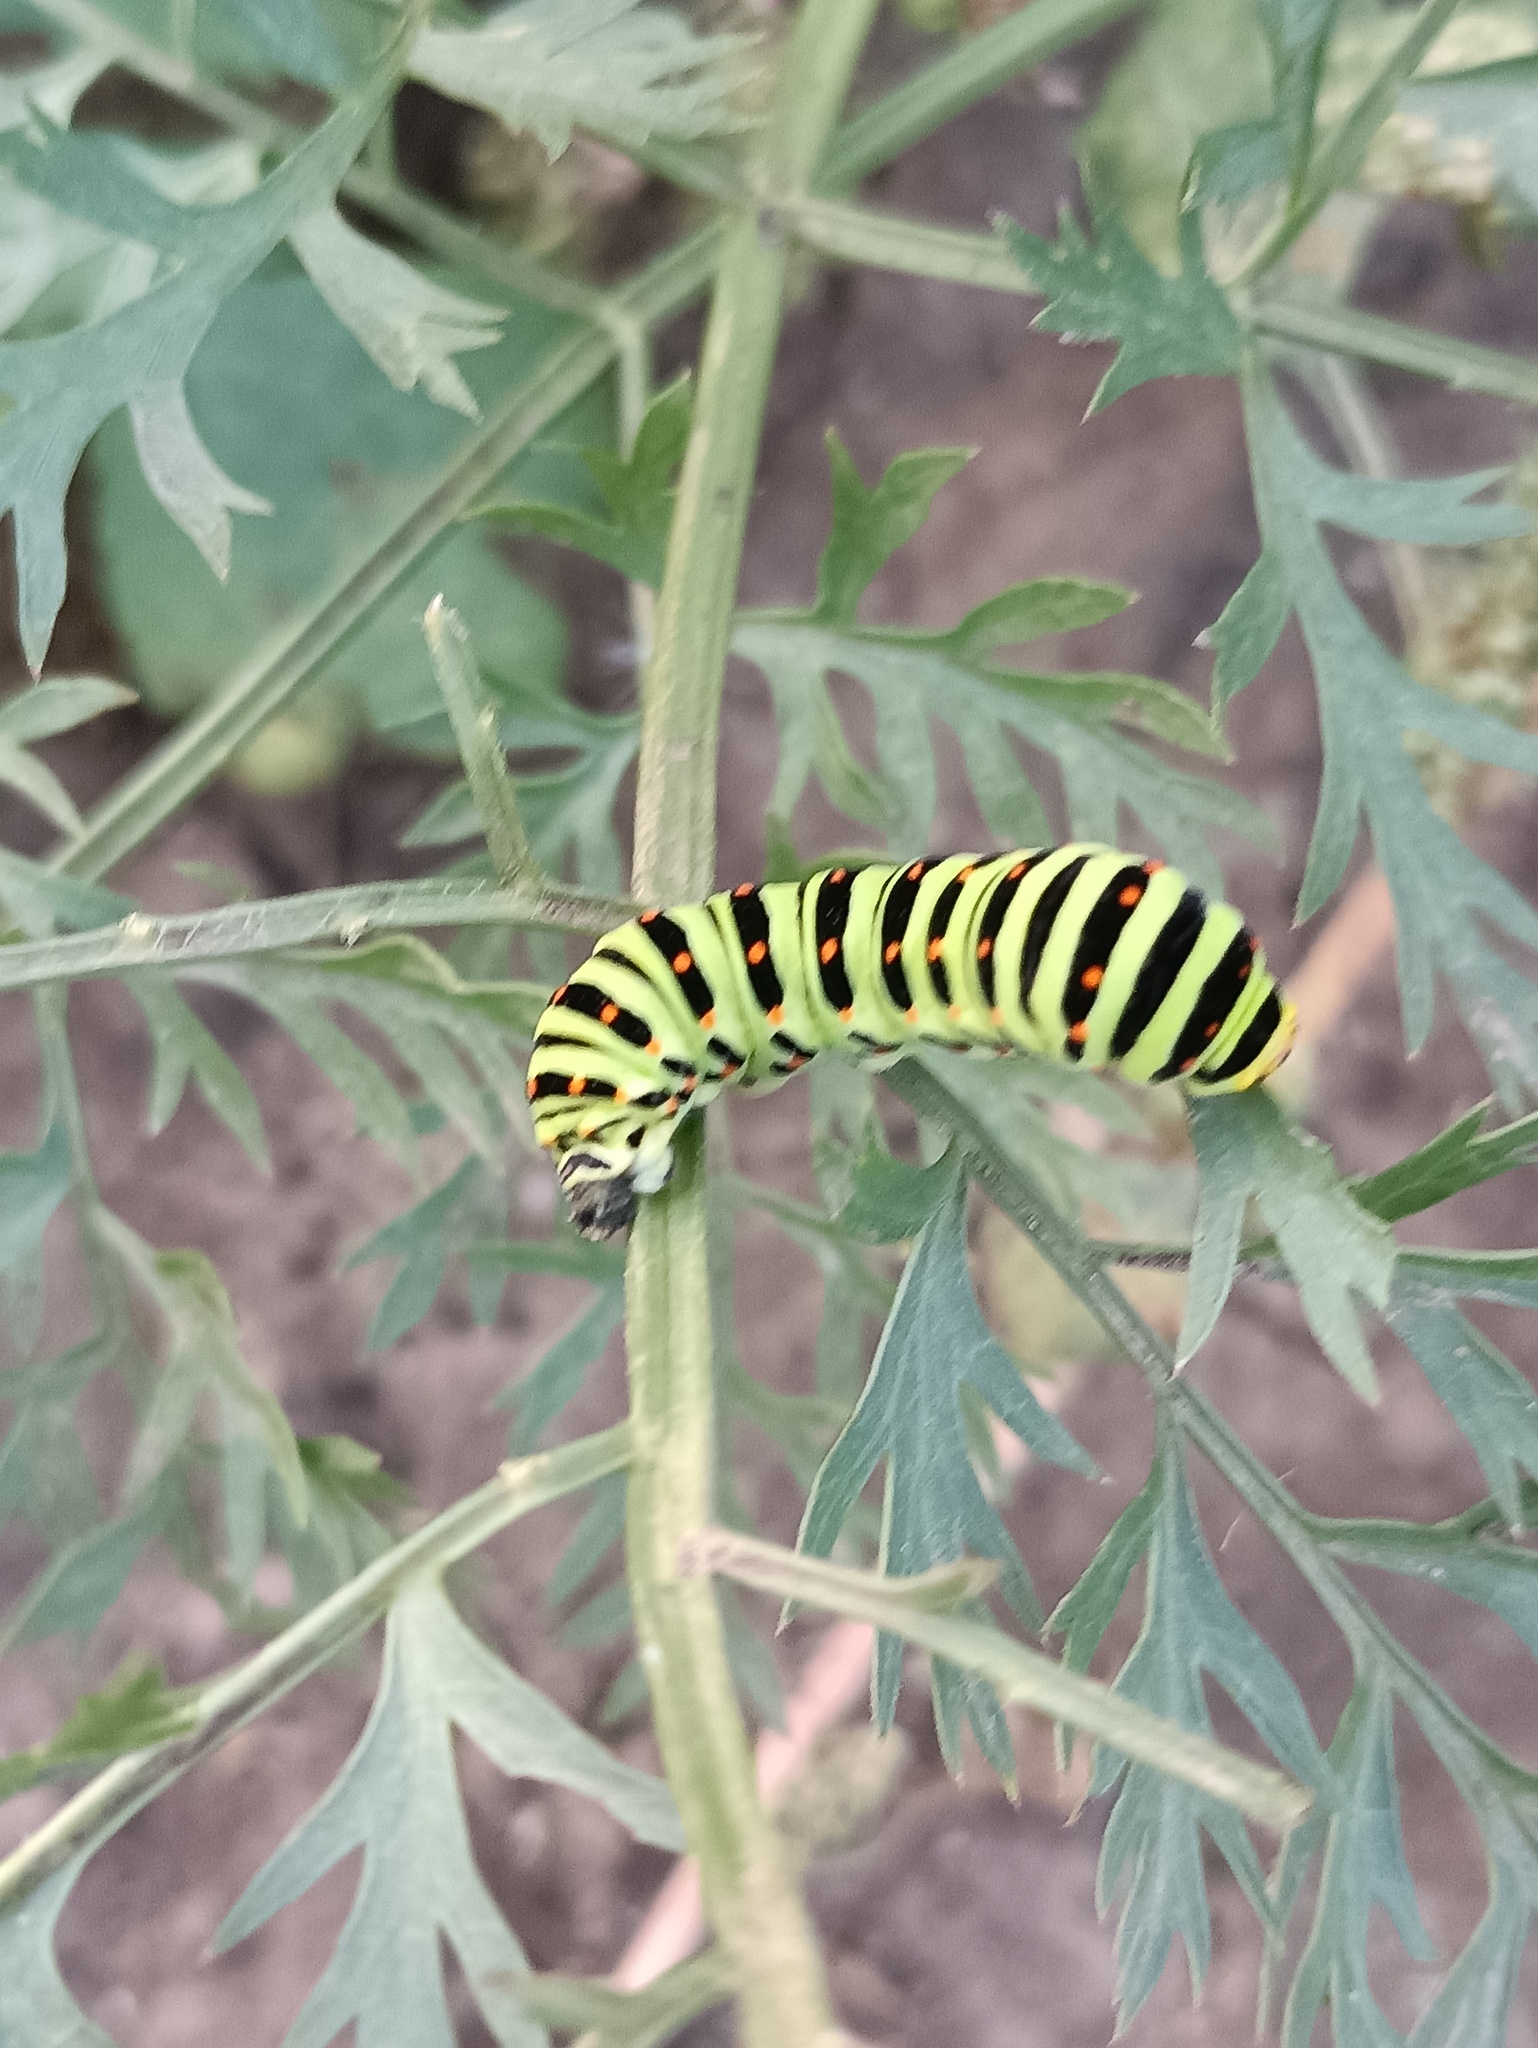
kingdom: Animalia
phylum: Arthropoda
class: Insecta
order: Lepidoptera
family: Papilionidae
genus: Papilio
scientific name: Papilio machaon
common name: Swallowtail
